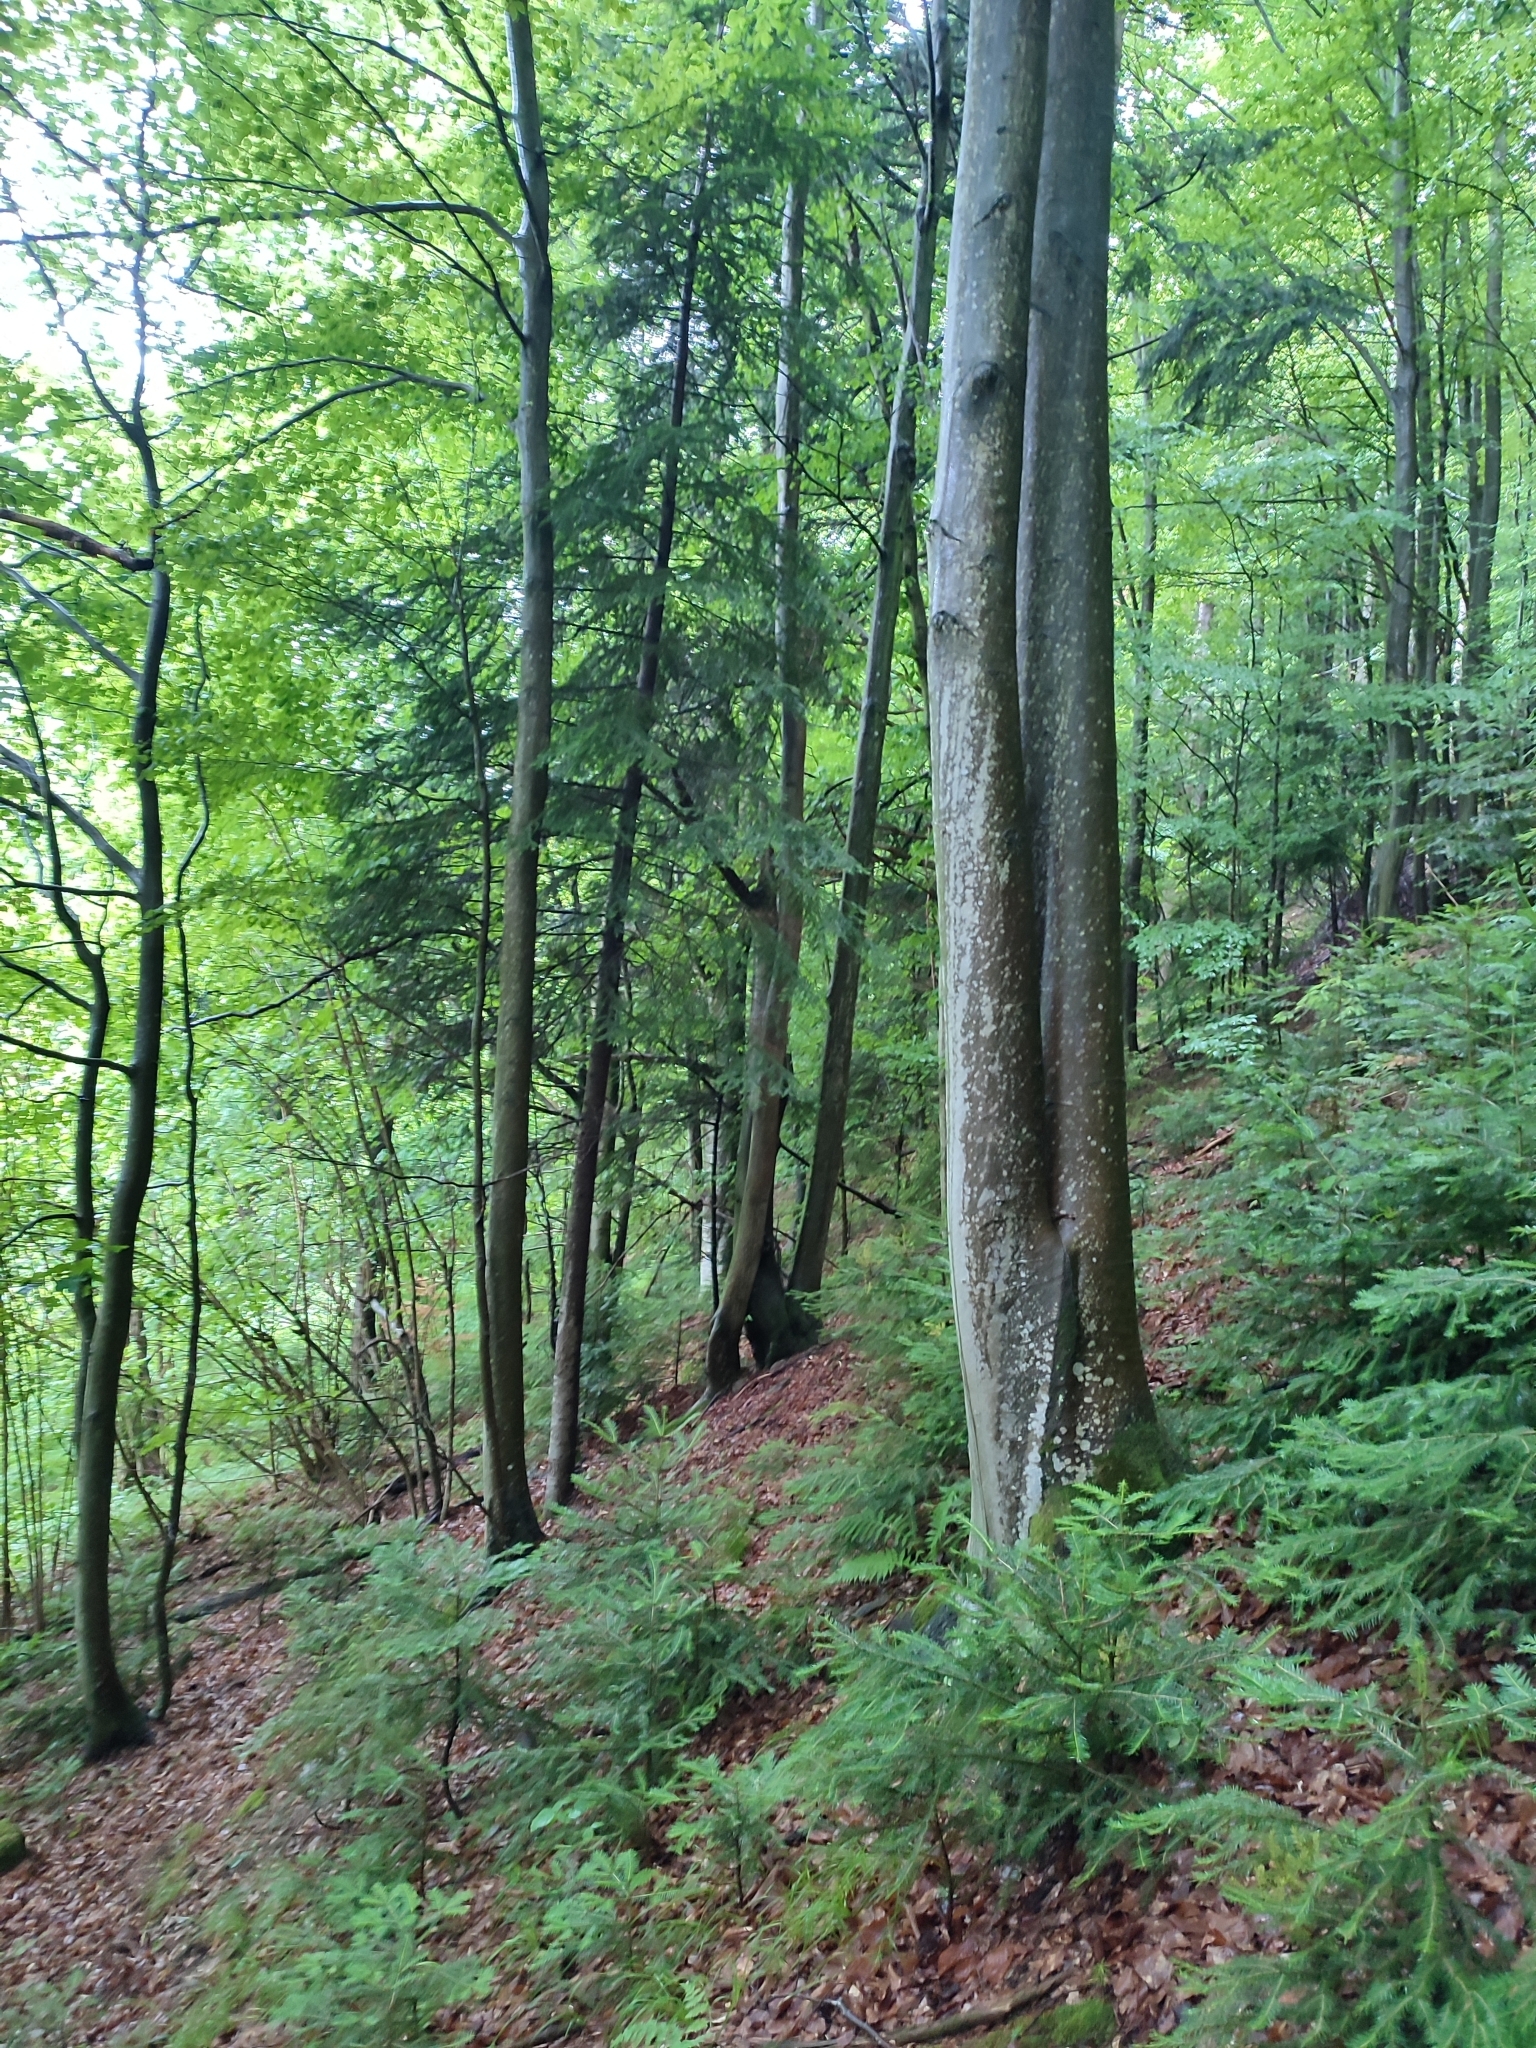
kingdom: Plantae
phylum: Tracheophyta
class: Magnoliopsida
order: Fagales
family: Fagaceae
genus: Fagus
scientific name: Fagus sylvatica
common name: Beech
